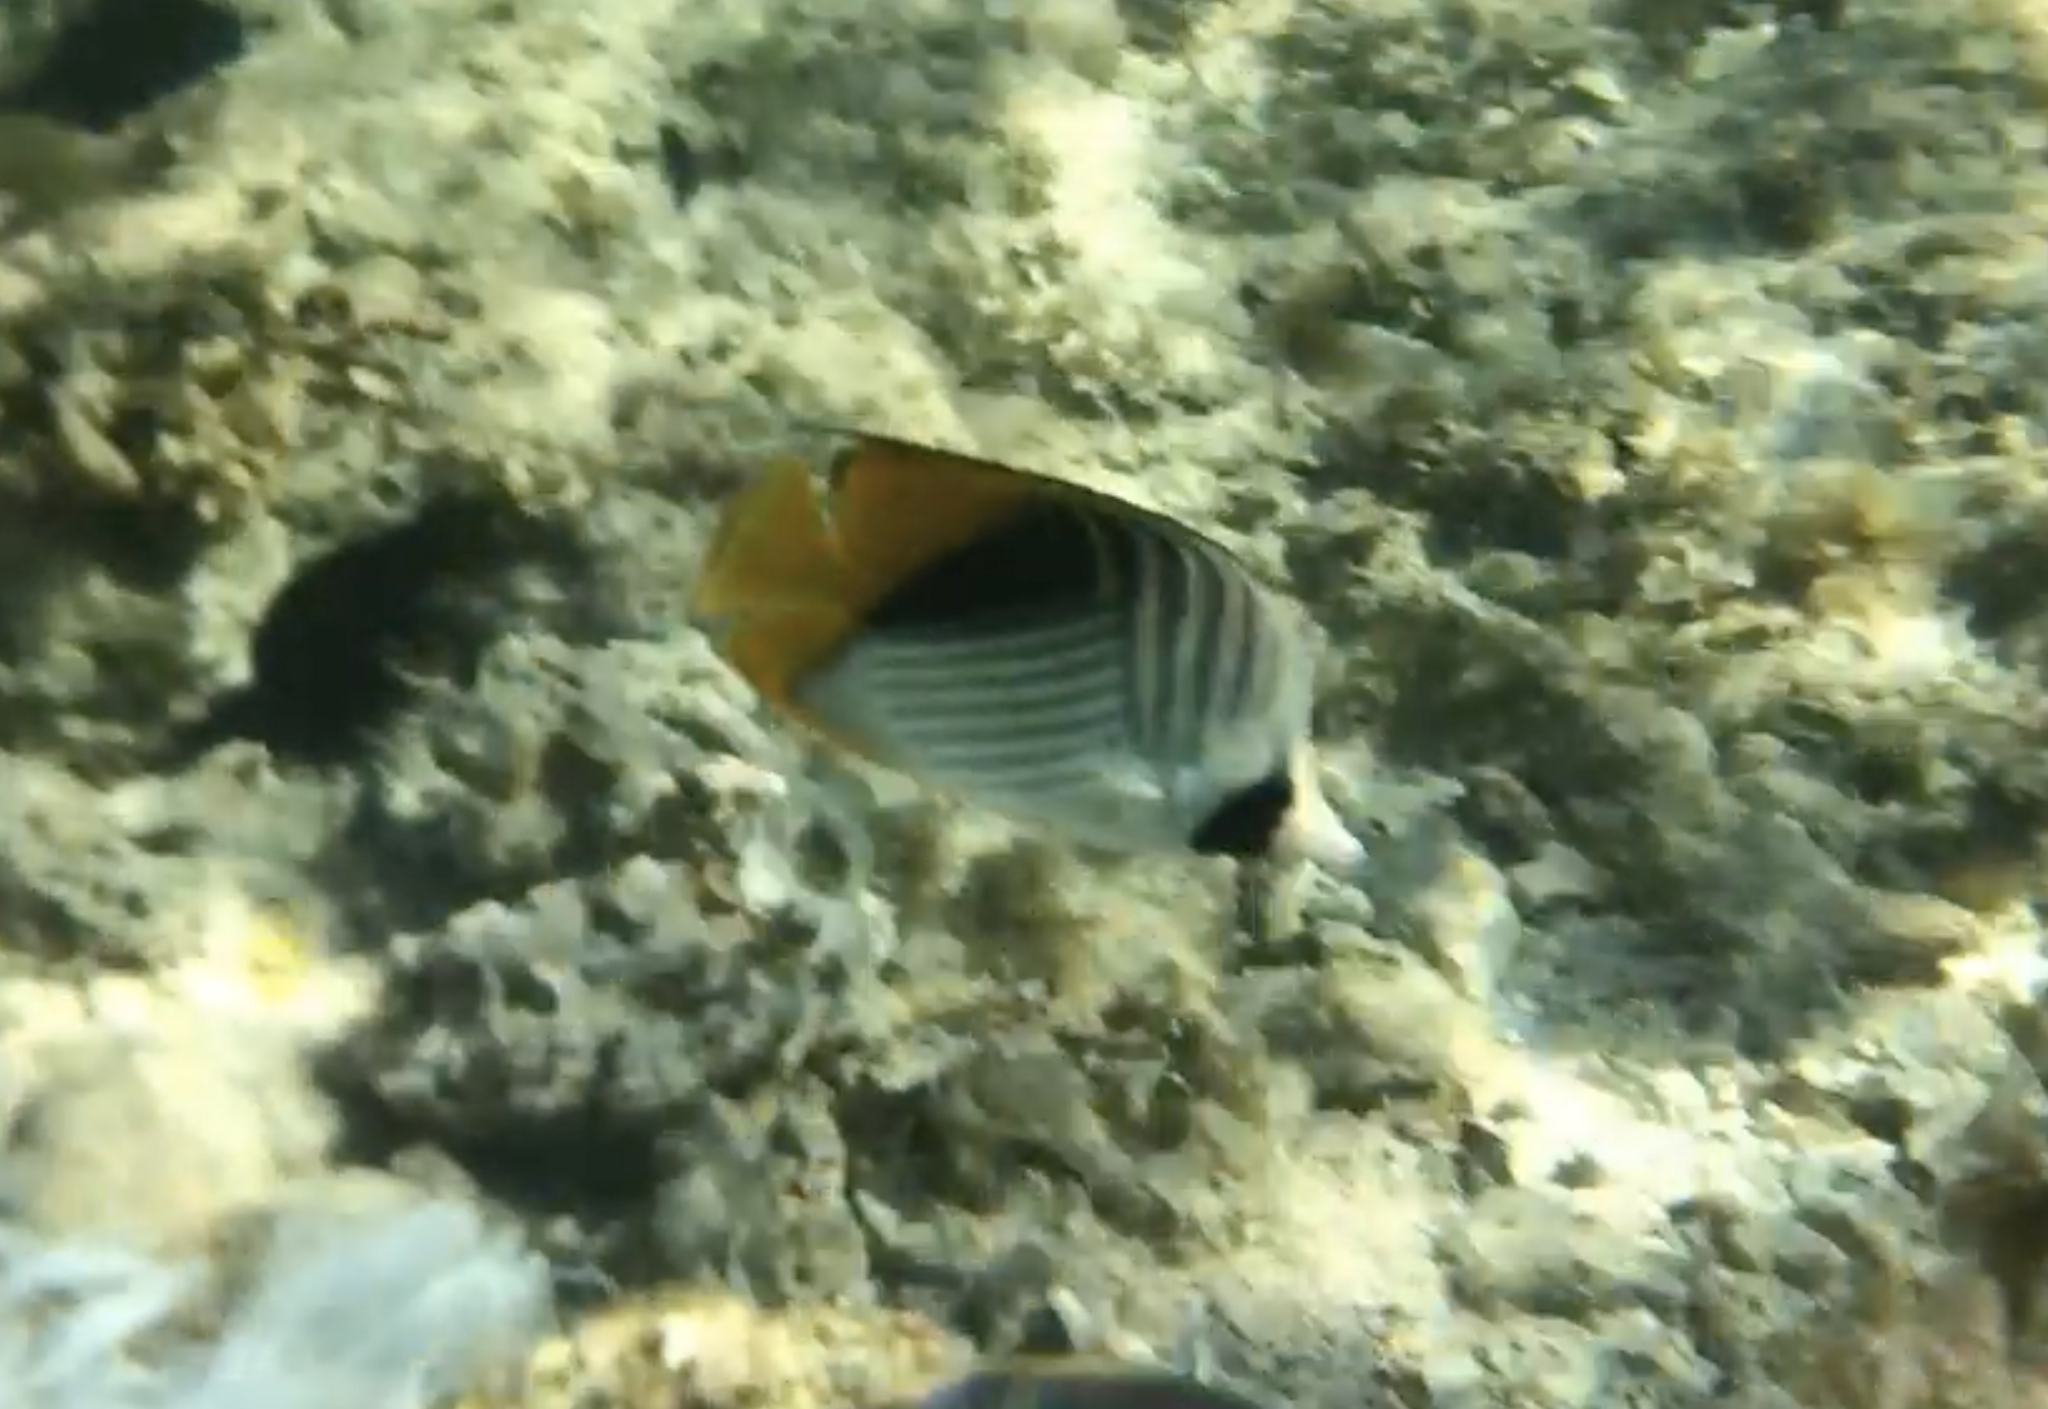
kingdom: Animalia
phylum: Chordata
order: Perciformes
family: Chaetodontidae
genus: Chaetodon
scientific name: Chaetodon auriga
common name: Threadfin butterflyfish
